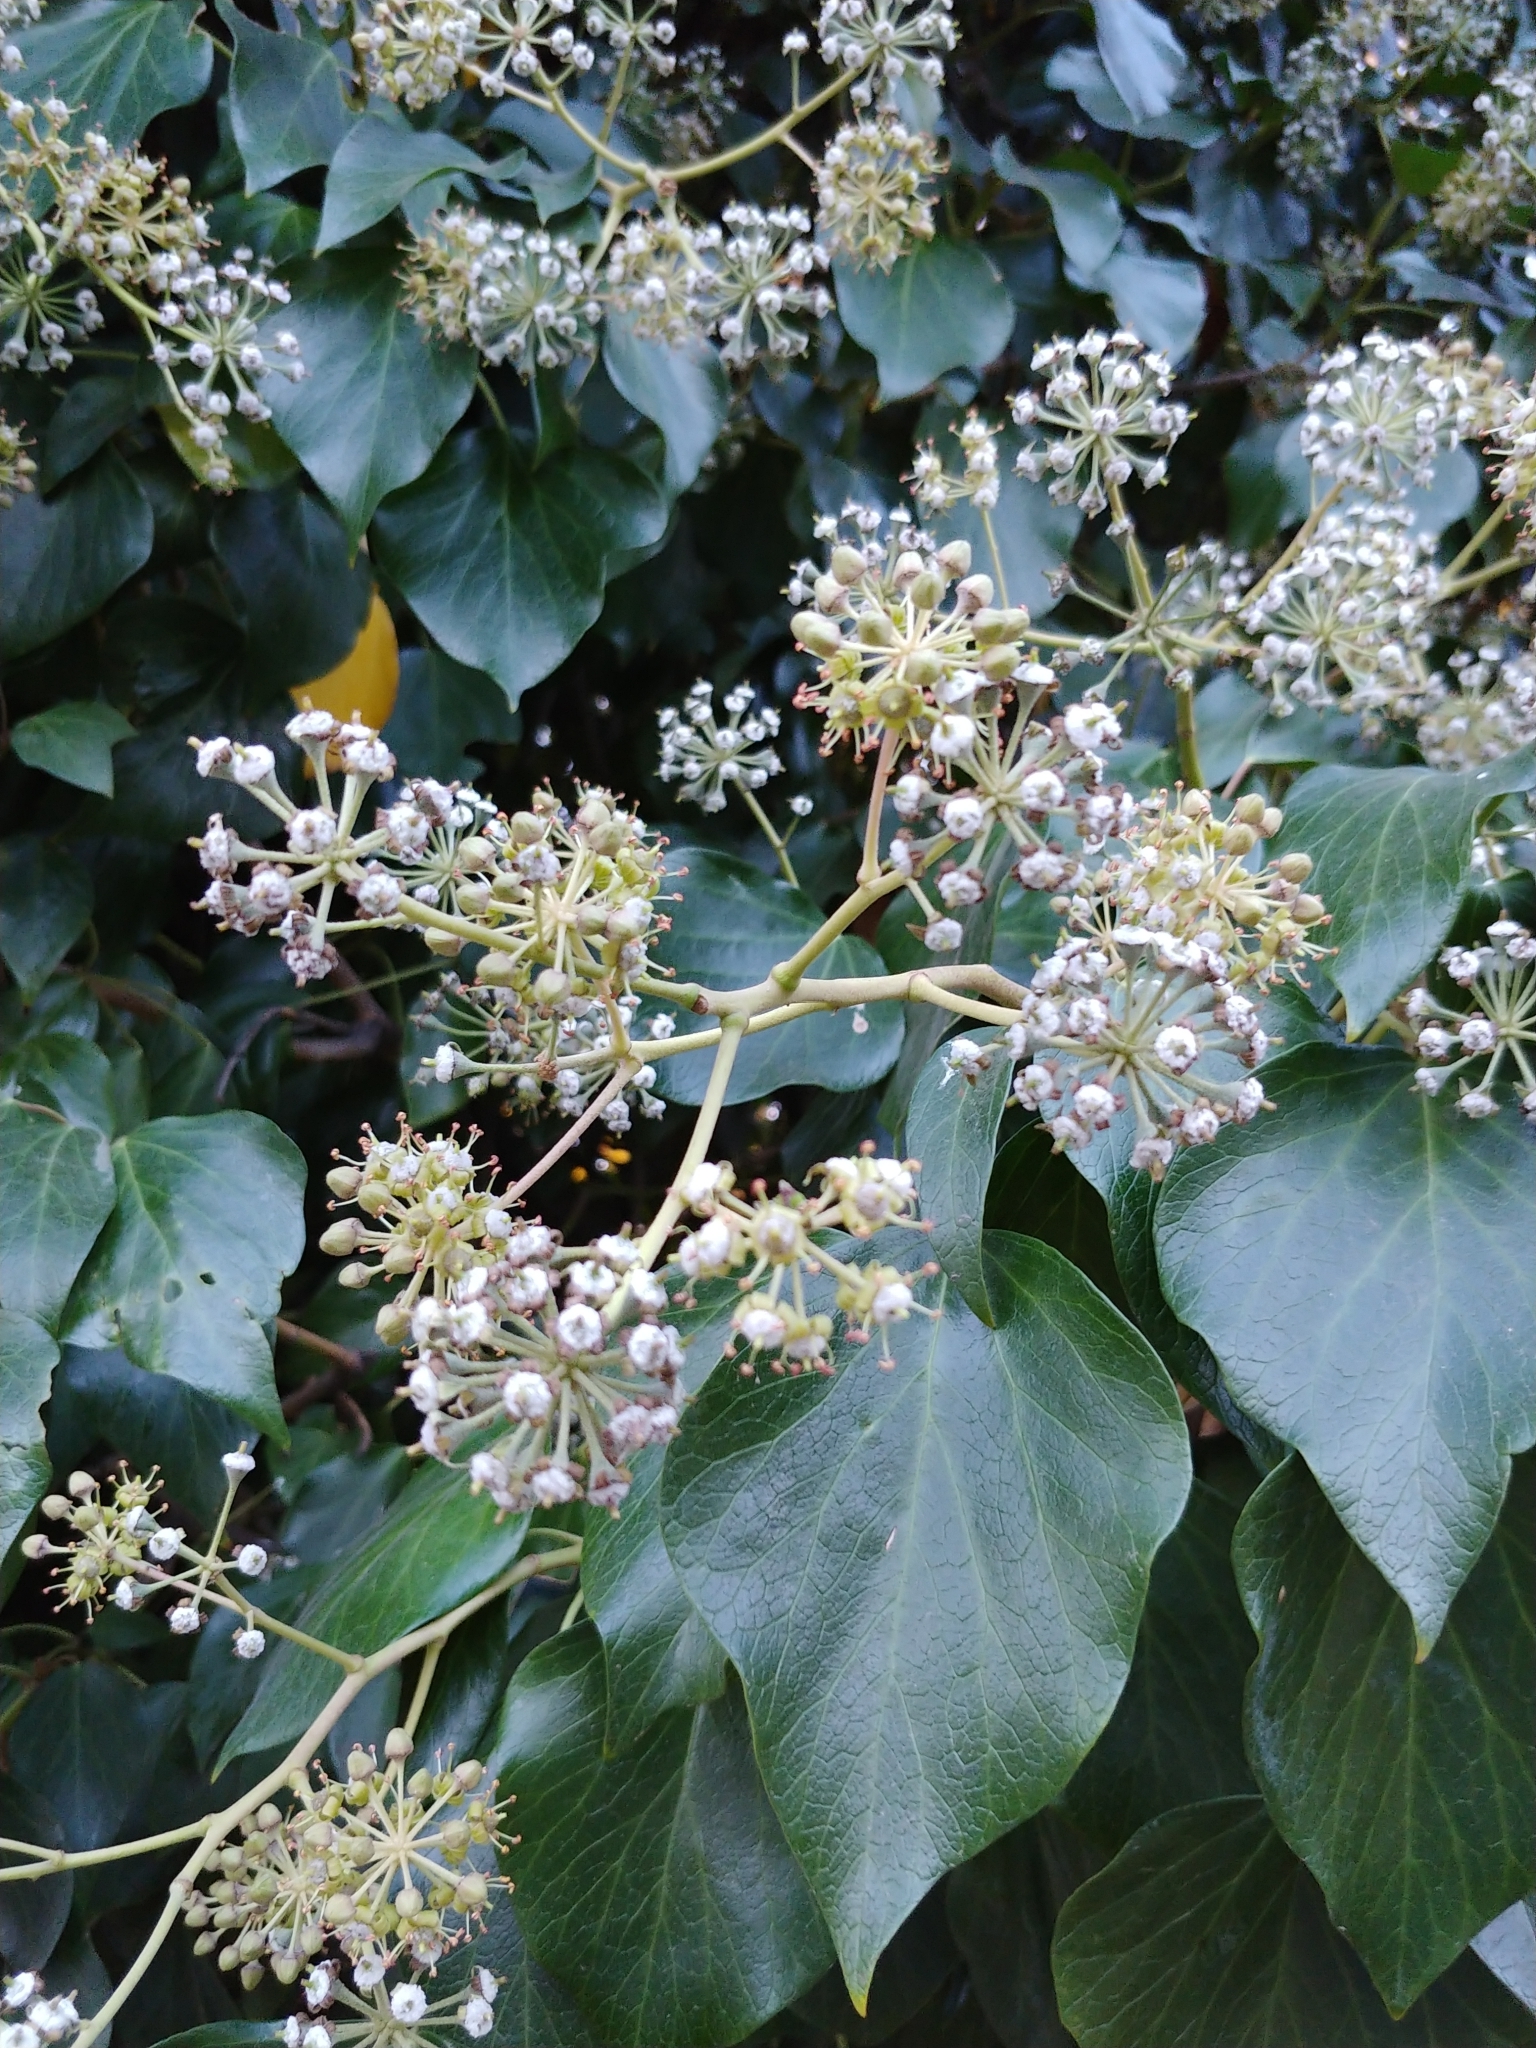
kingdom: Plantae
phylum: Tracheophyta
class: Magnoliopsida
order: Apiales
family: Araliaceae
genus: Hedera
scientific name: Hedera helix
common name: Ivy
